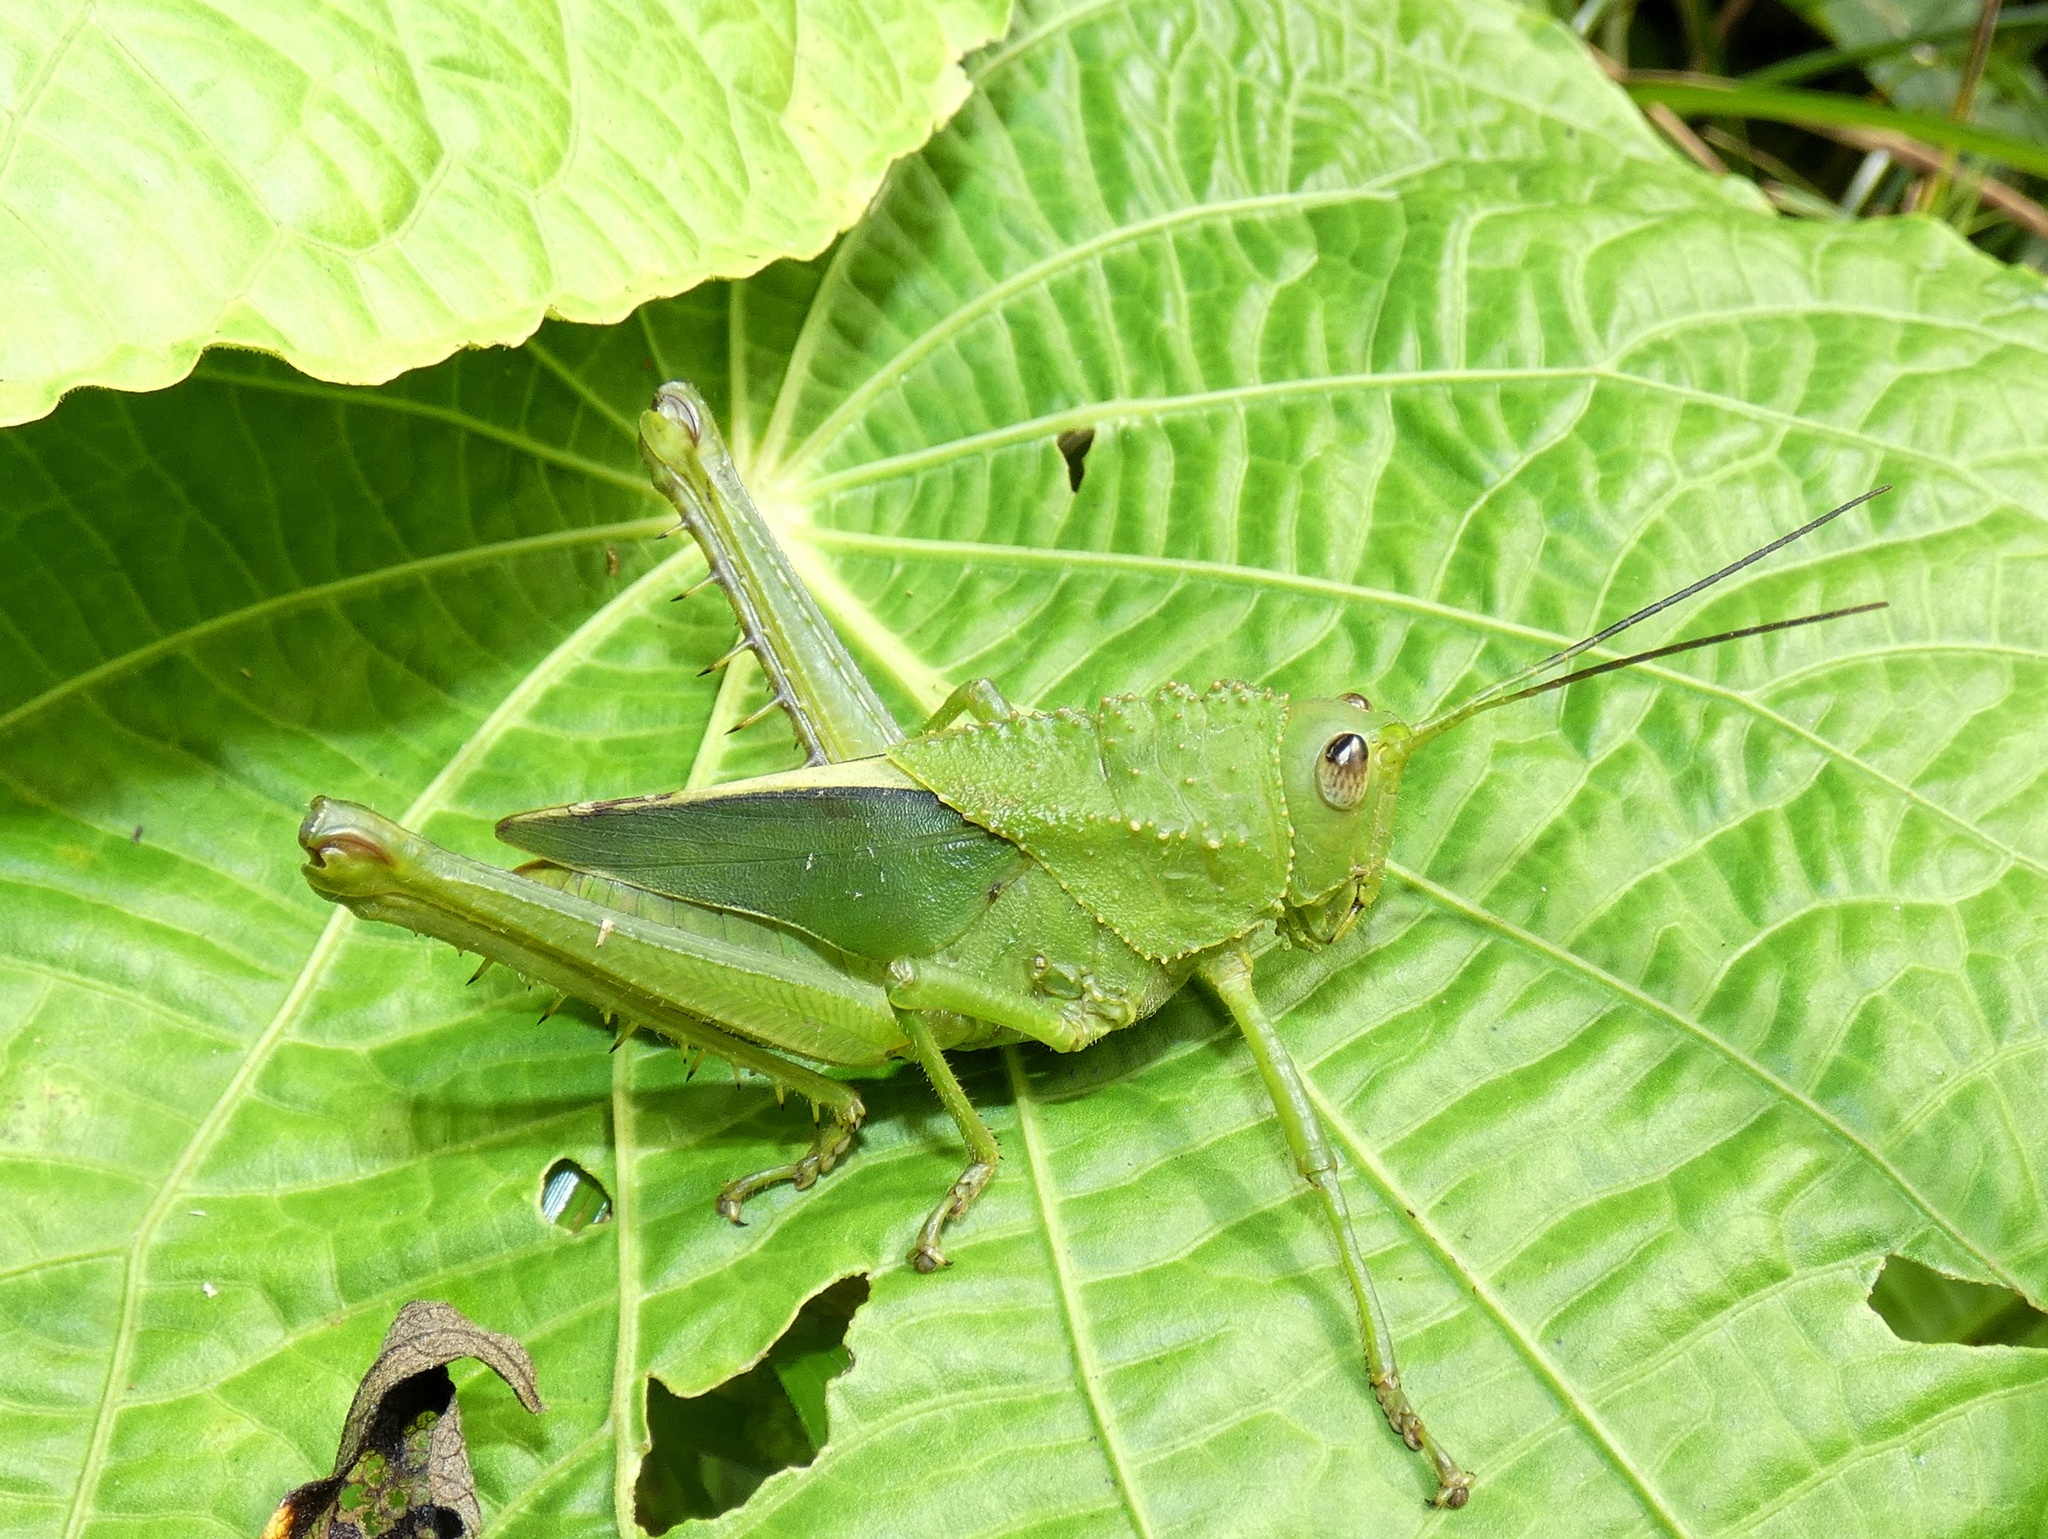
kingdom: Animalia
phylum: Arthropoda
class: Insecta
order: Orthoptera
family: Romaleidae
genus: Agriacris
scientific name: Agriacris tricristata
